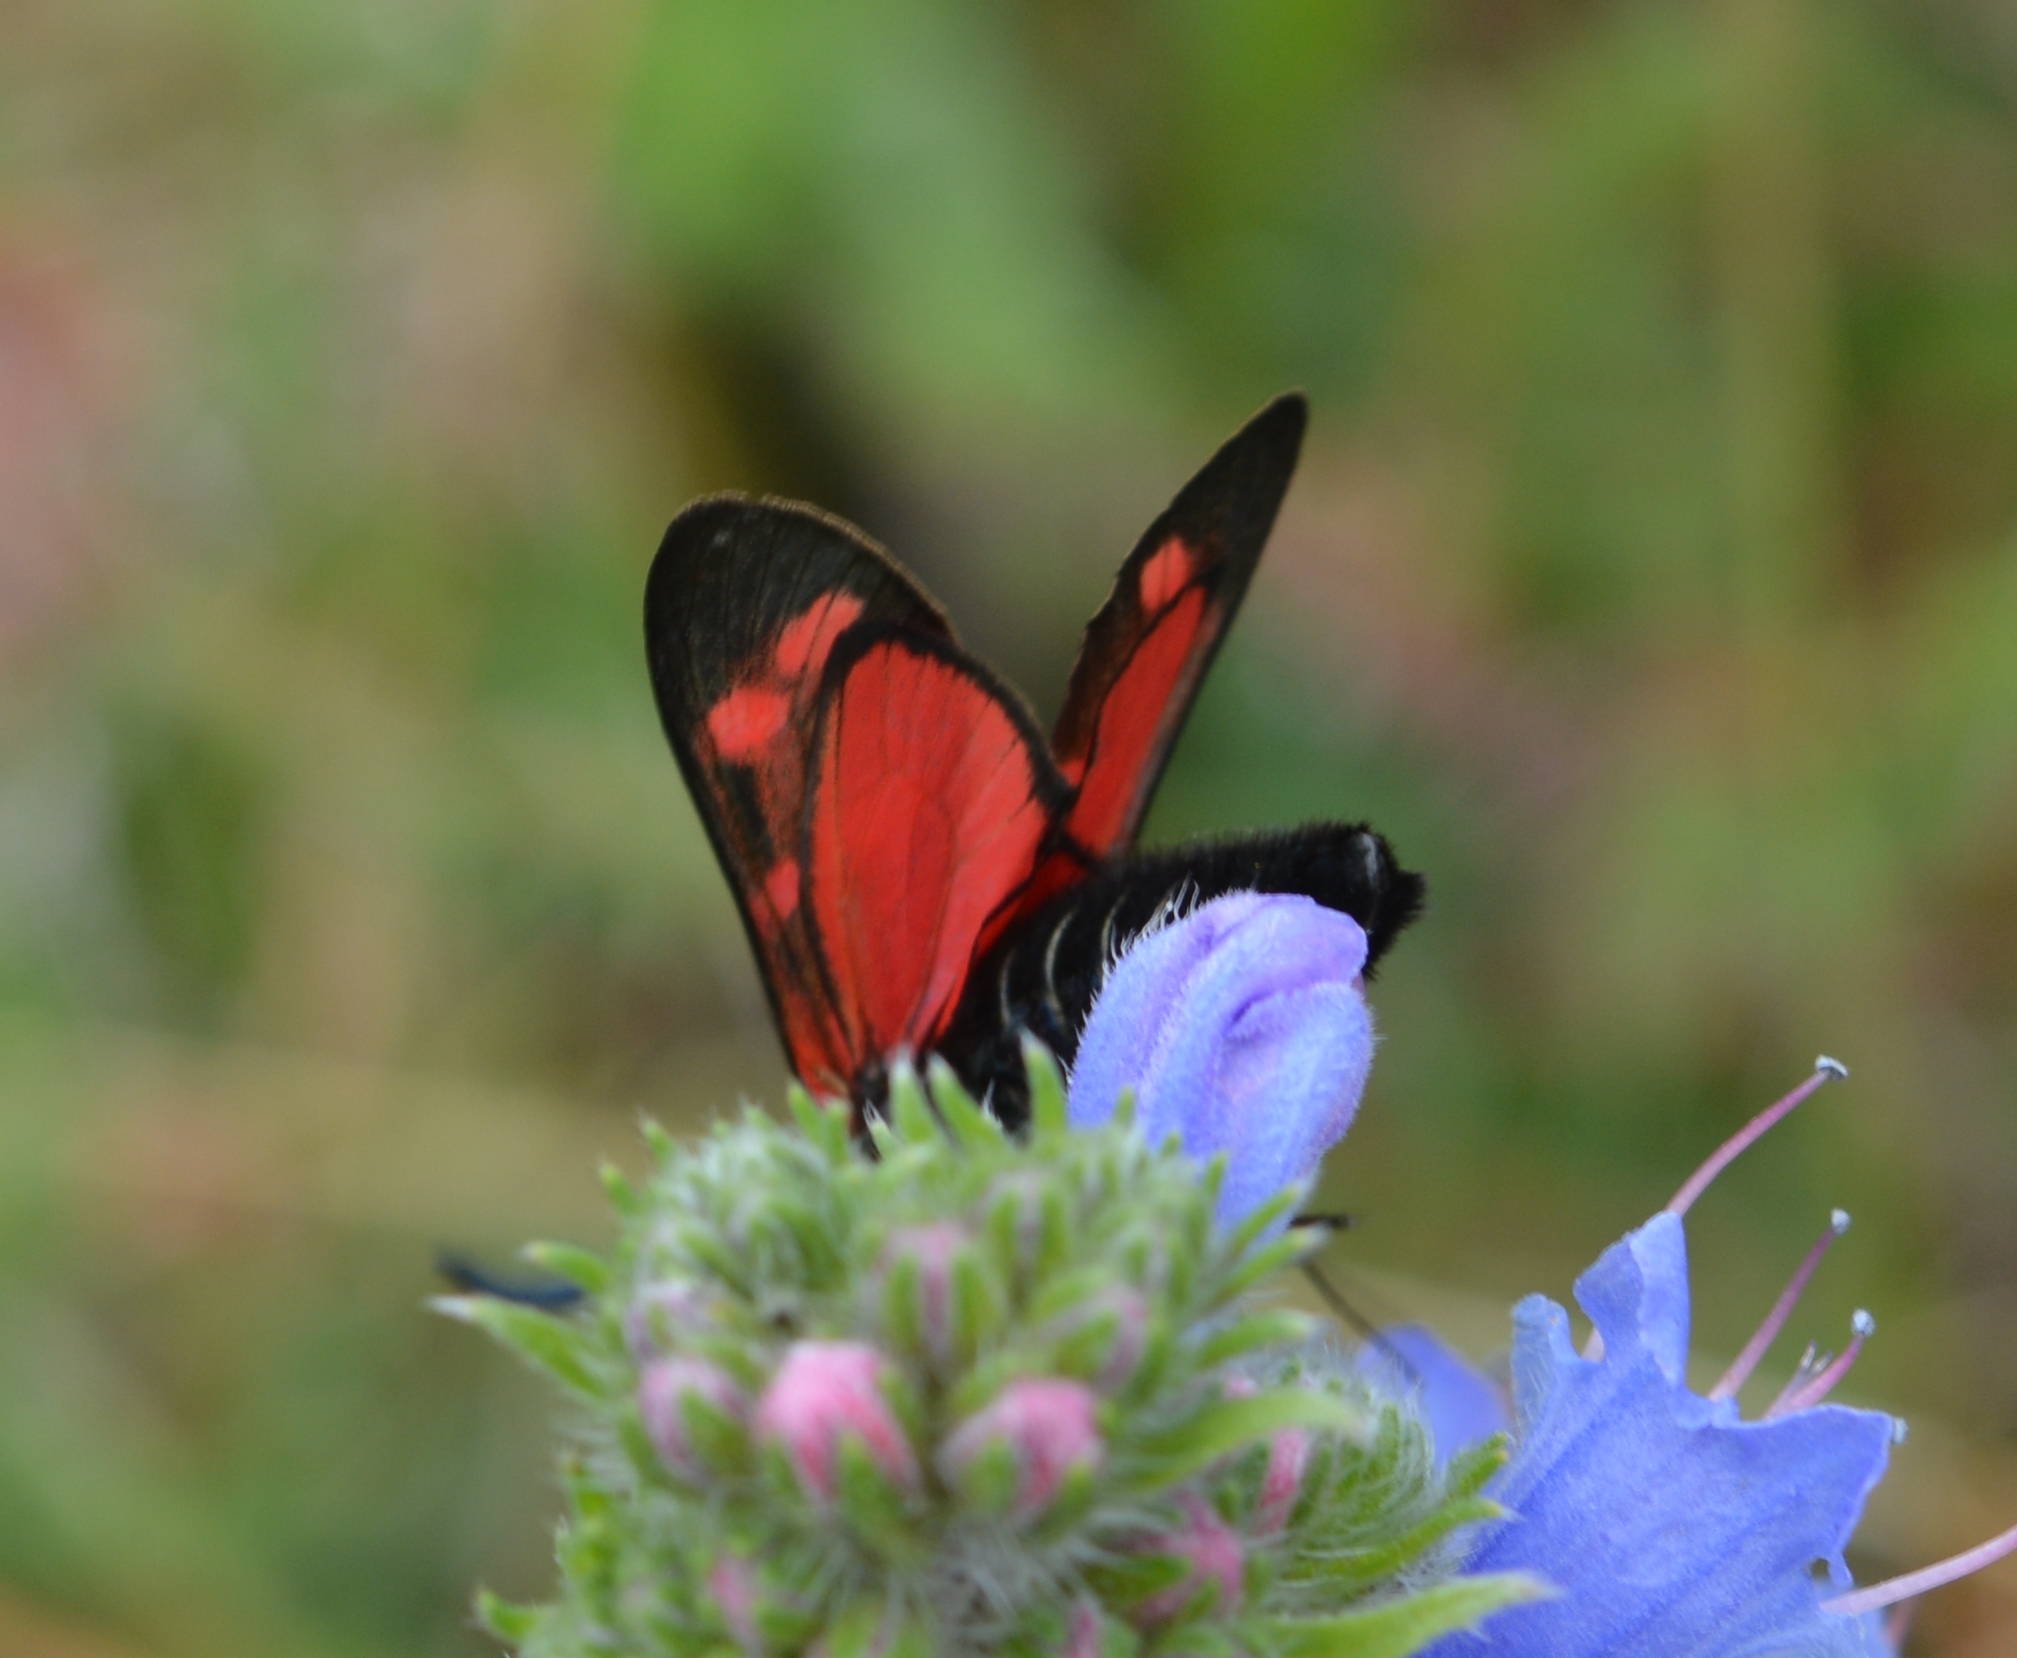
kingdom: Animalia
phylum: Arthropoda
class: Insecta
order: Lepidoptera
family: Zygaenidae
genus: Zygaena
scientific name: Zygaena filipendulae
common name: Six-spot burnet
